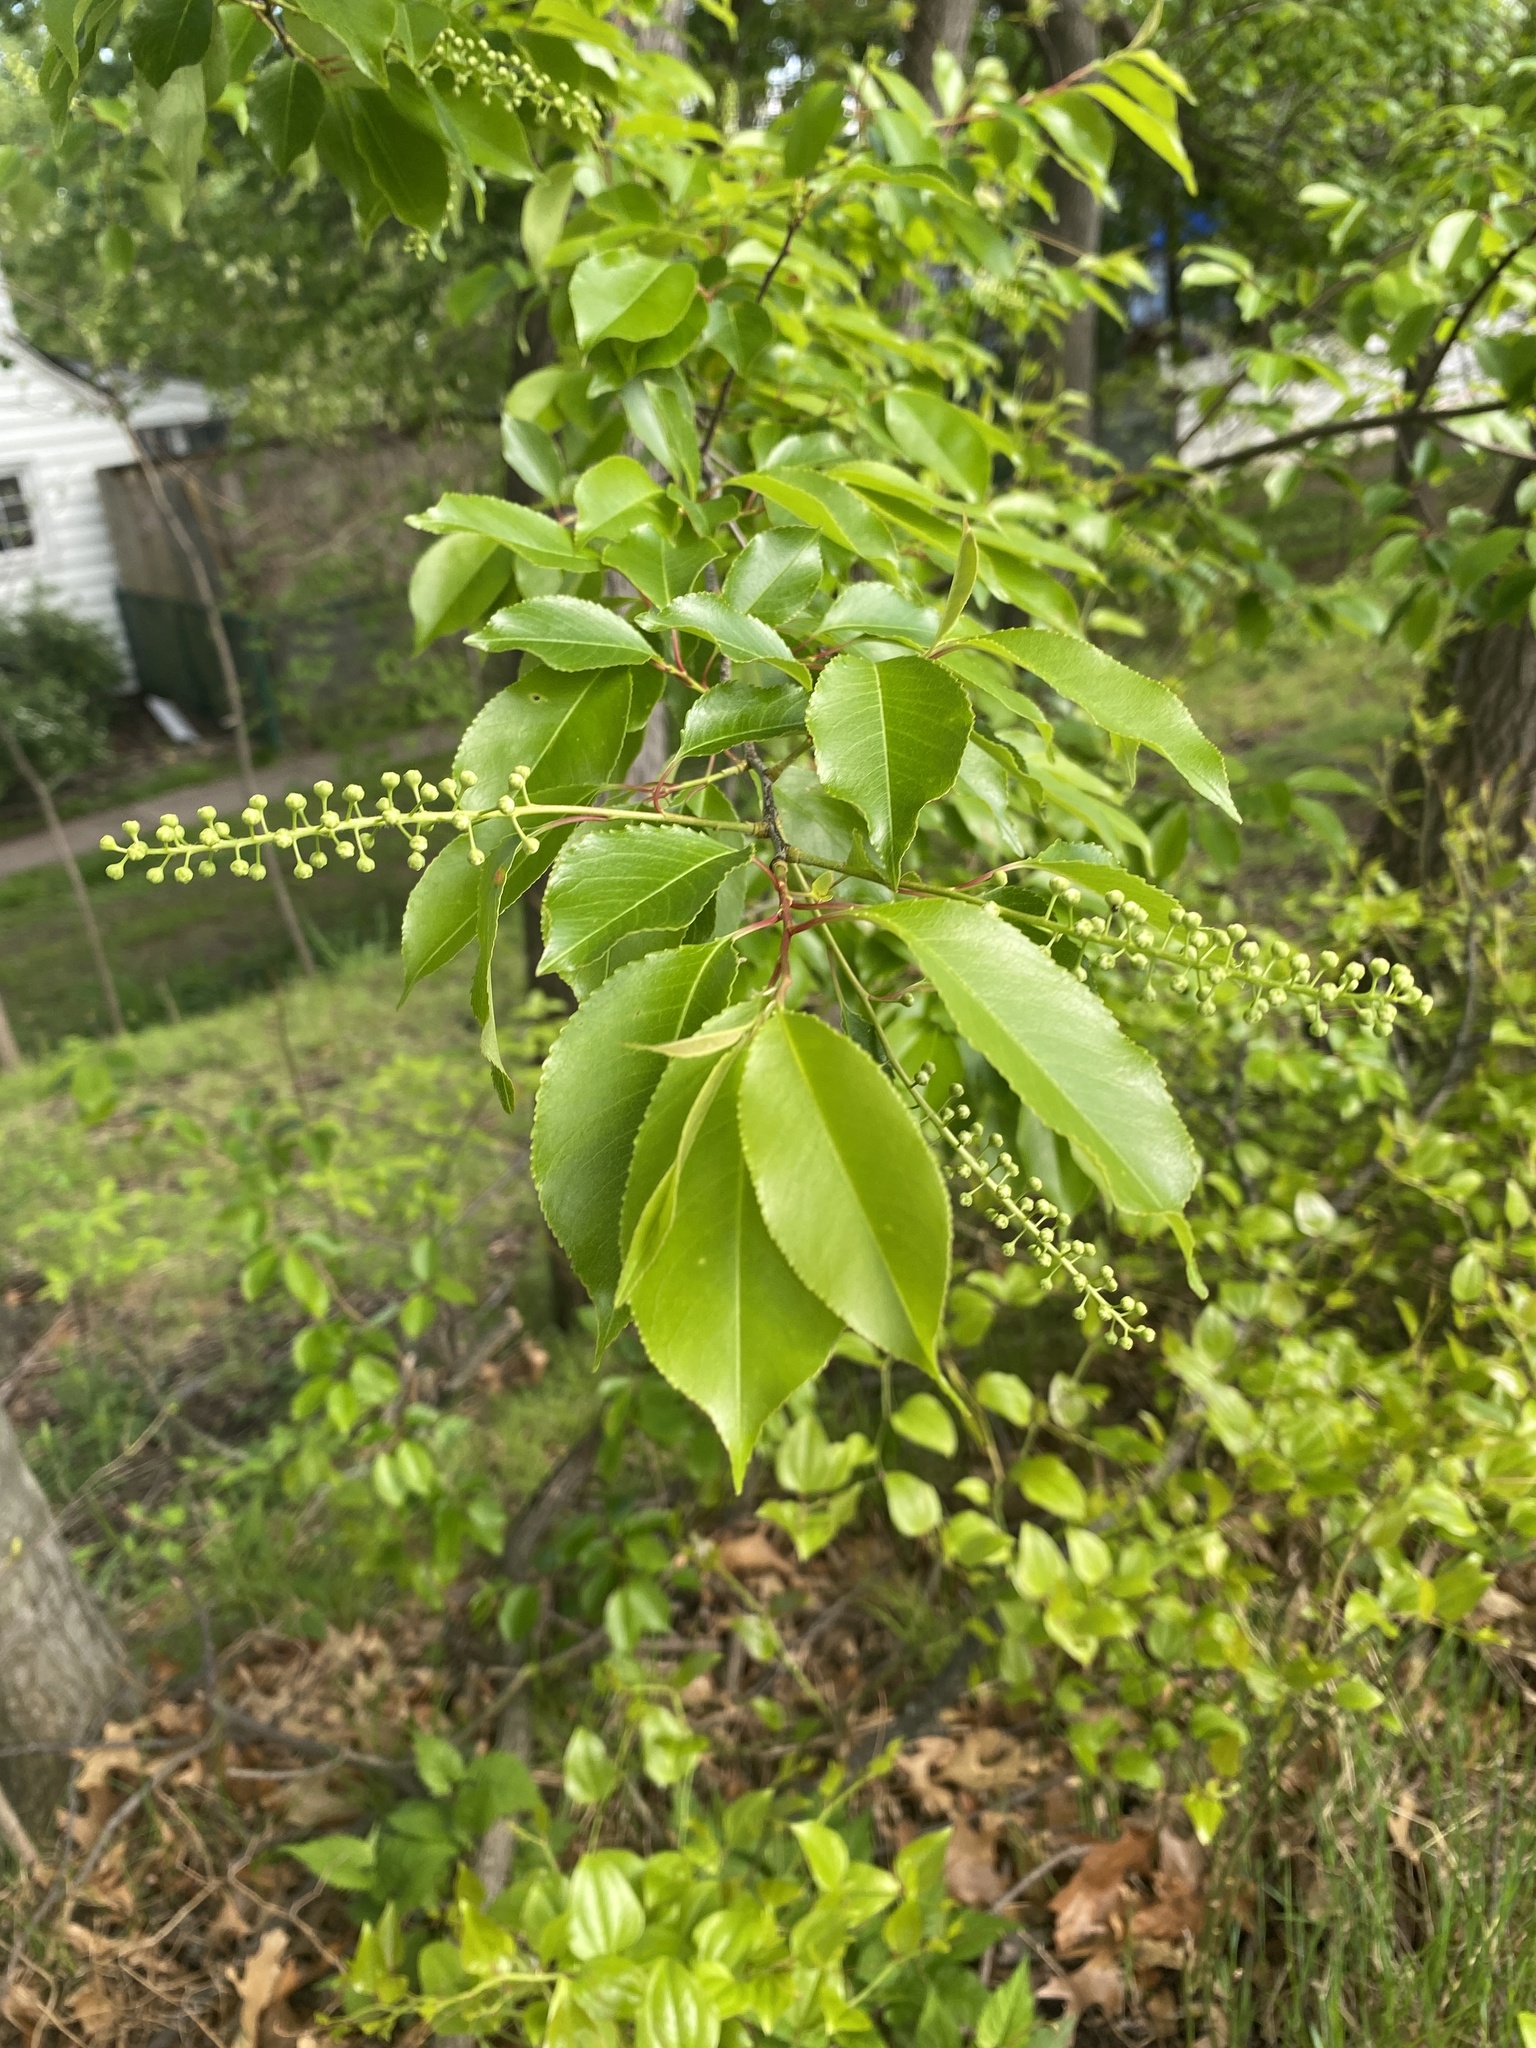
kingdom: Plantae
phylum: Tracheophyta
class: Magnoliopsida
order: Rosales
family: Rosaceae
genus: Prunus
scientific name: Prunus serotina
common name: Black cherry
